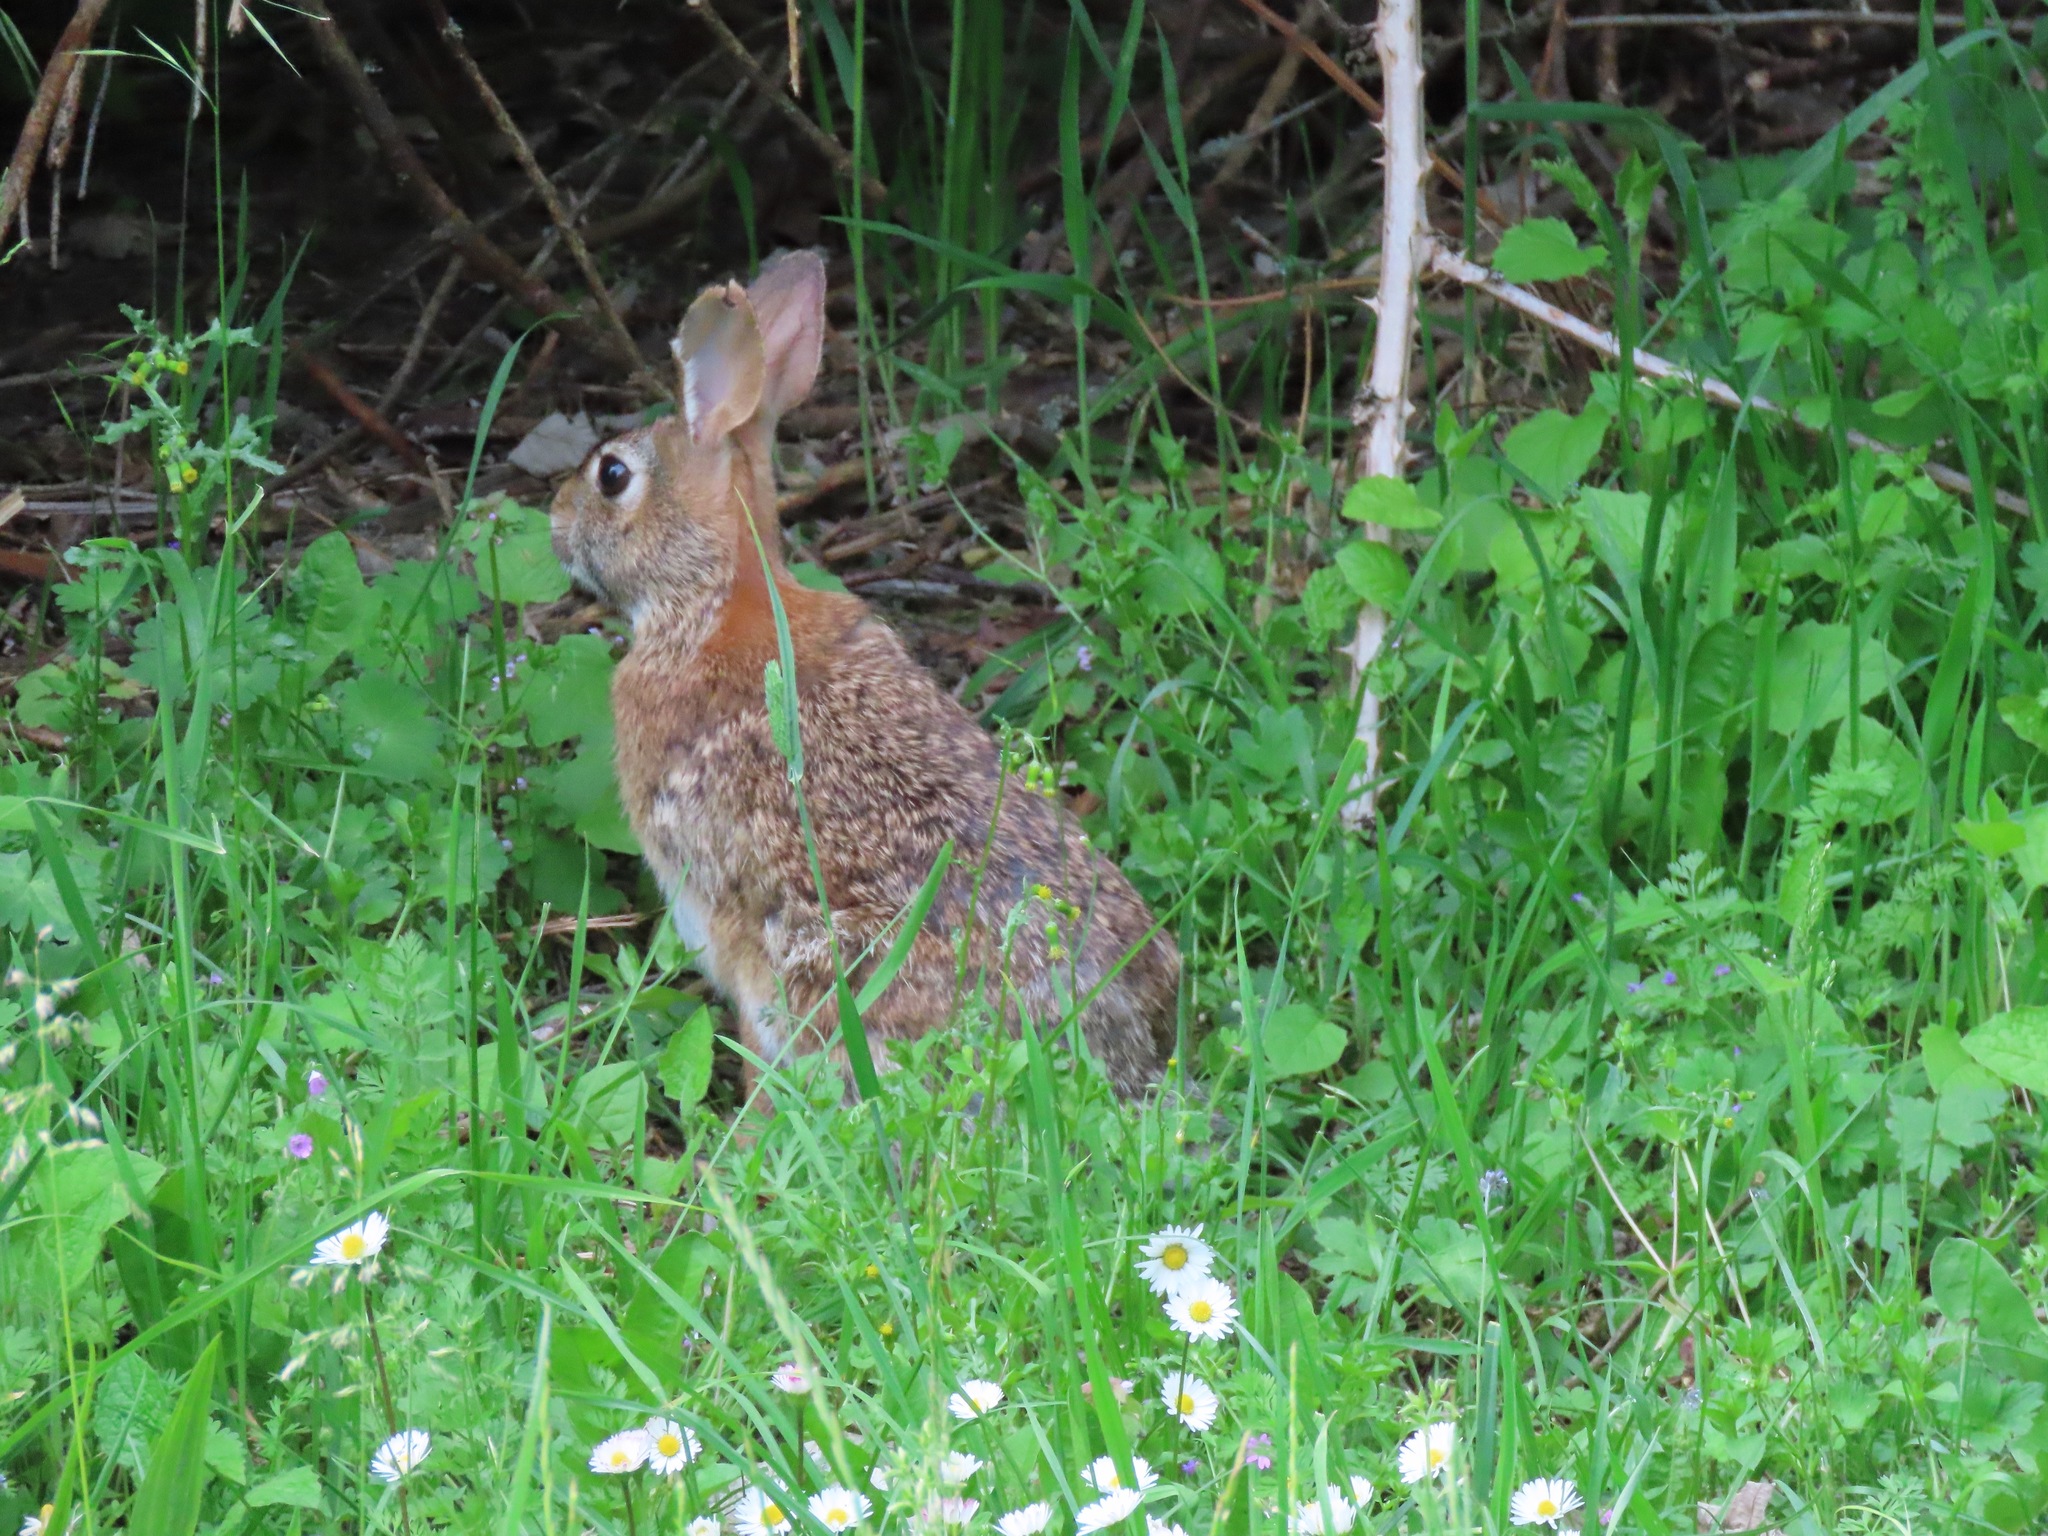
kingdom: Animalia
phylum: Chordata
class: Mammalia
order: Lagomorpha
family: Leporidae
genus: Sylvilagus
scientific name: Sylvilagus floridanus
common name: Eastern cottontail
